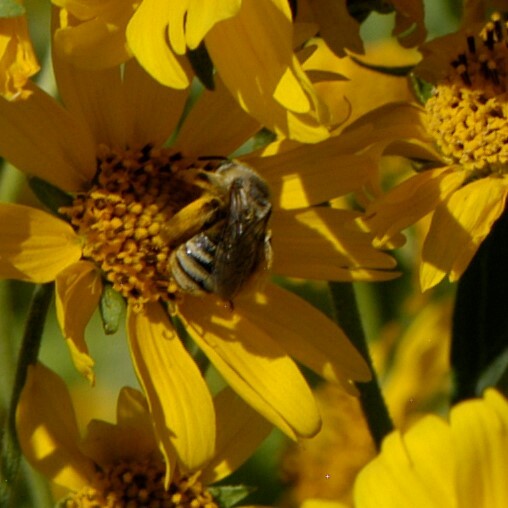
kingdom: Animalia
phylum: Arthropoda
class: Insecta
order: Hymenoptera
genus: Eumelissodes
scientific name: Eumelissodes
